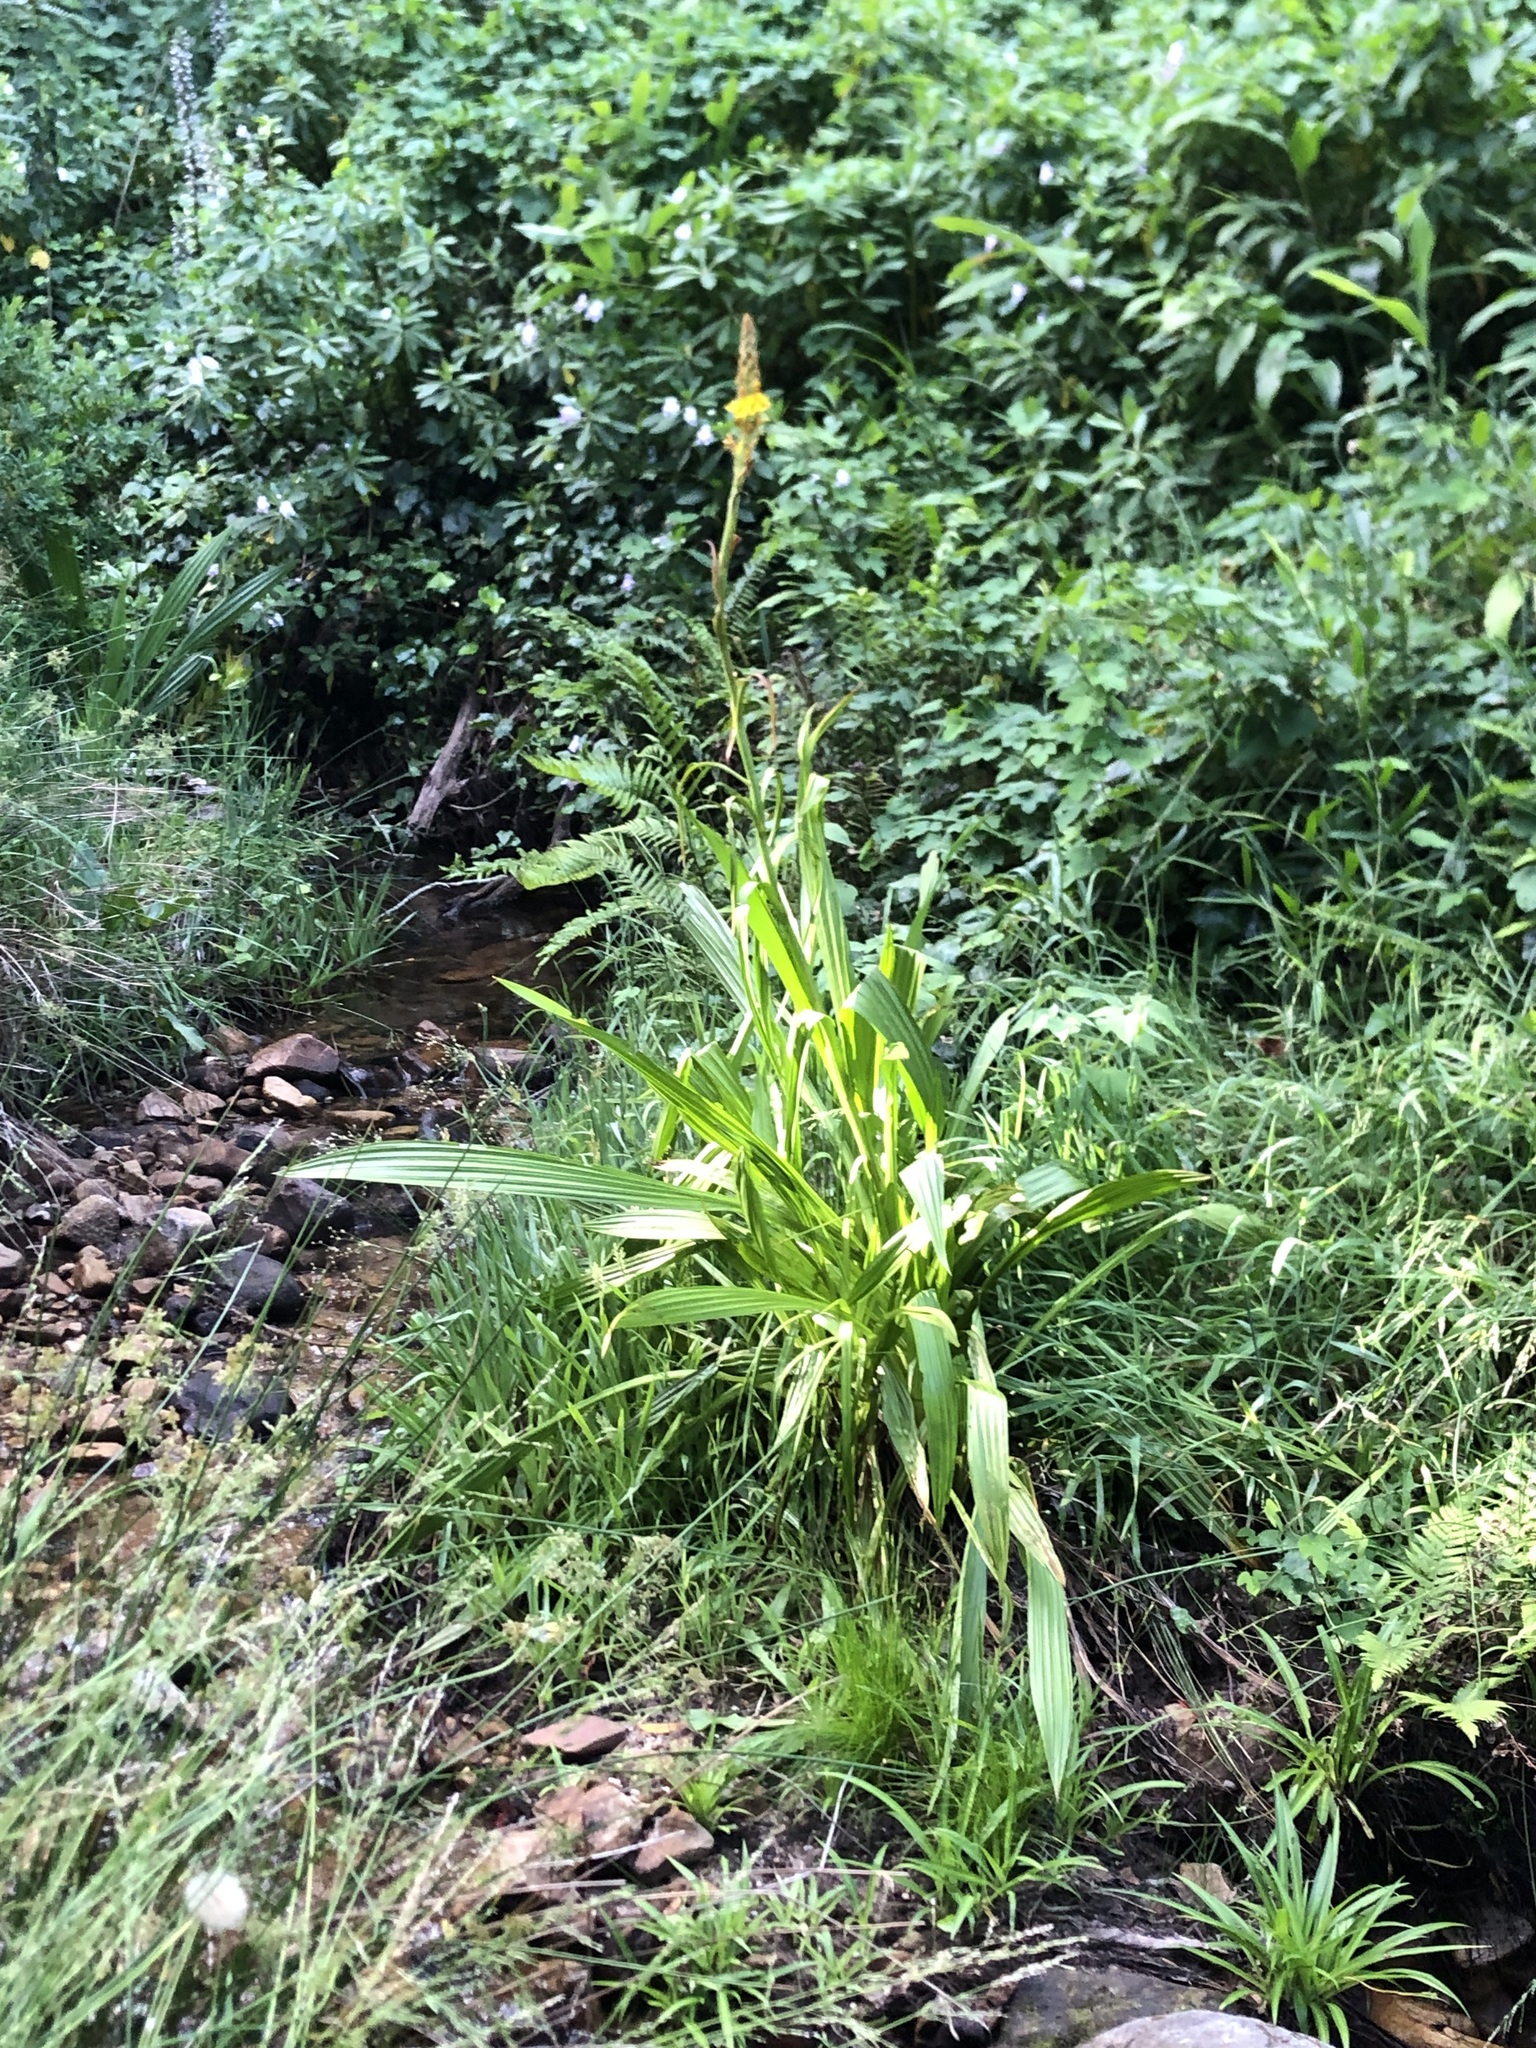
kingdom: Plantae
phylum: Tracheophyta
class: Liliopsida
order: Commelinales
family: Haemodoraceae
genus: Wachendorfia
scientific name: Wachendorfia thyrsiflora
